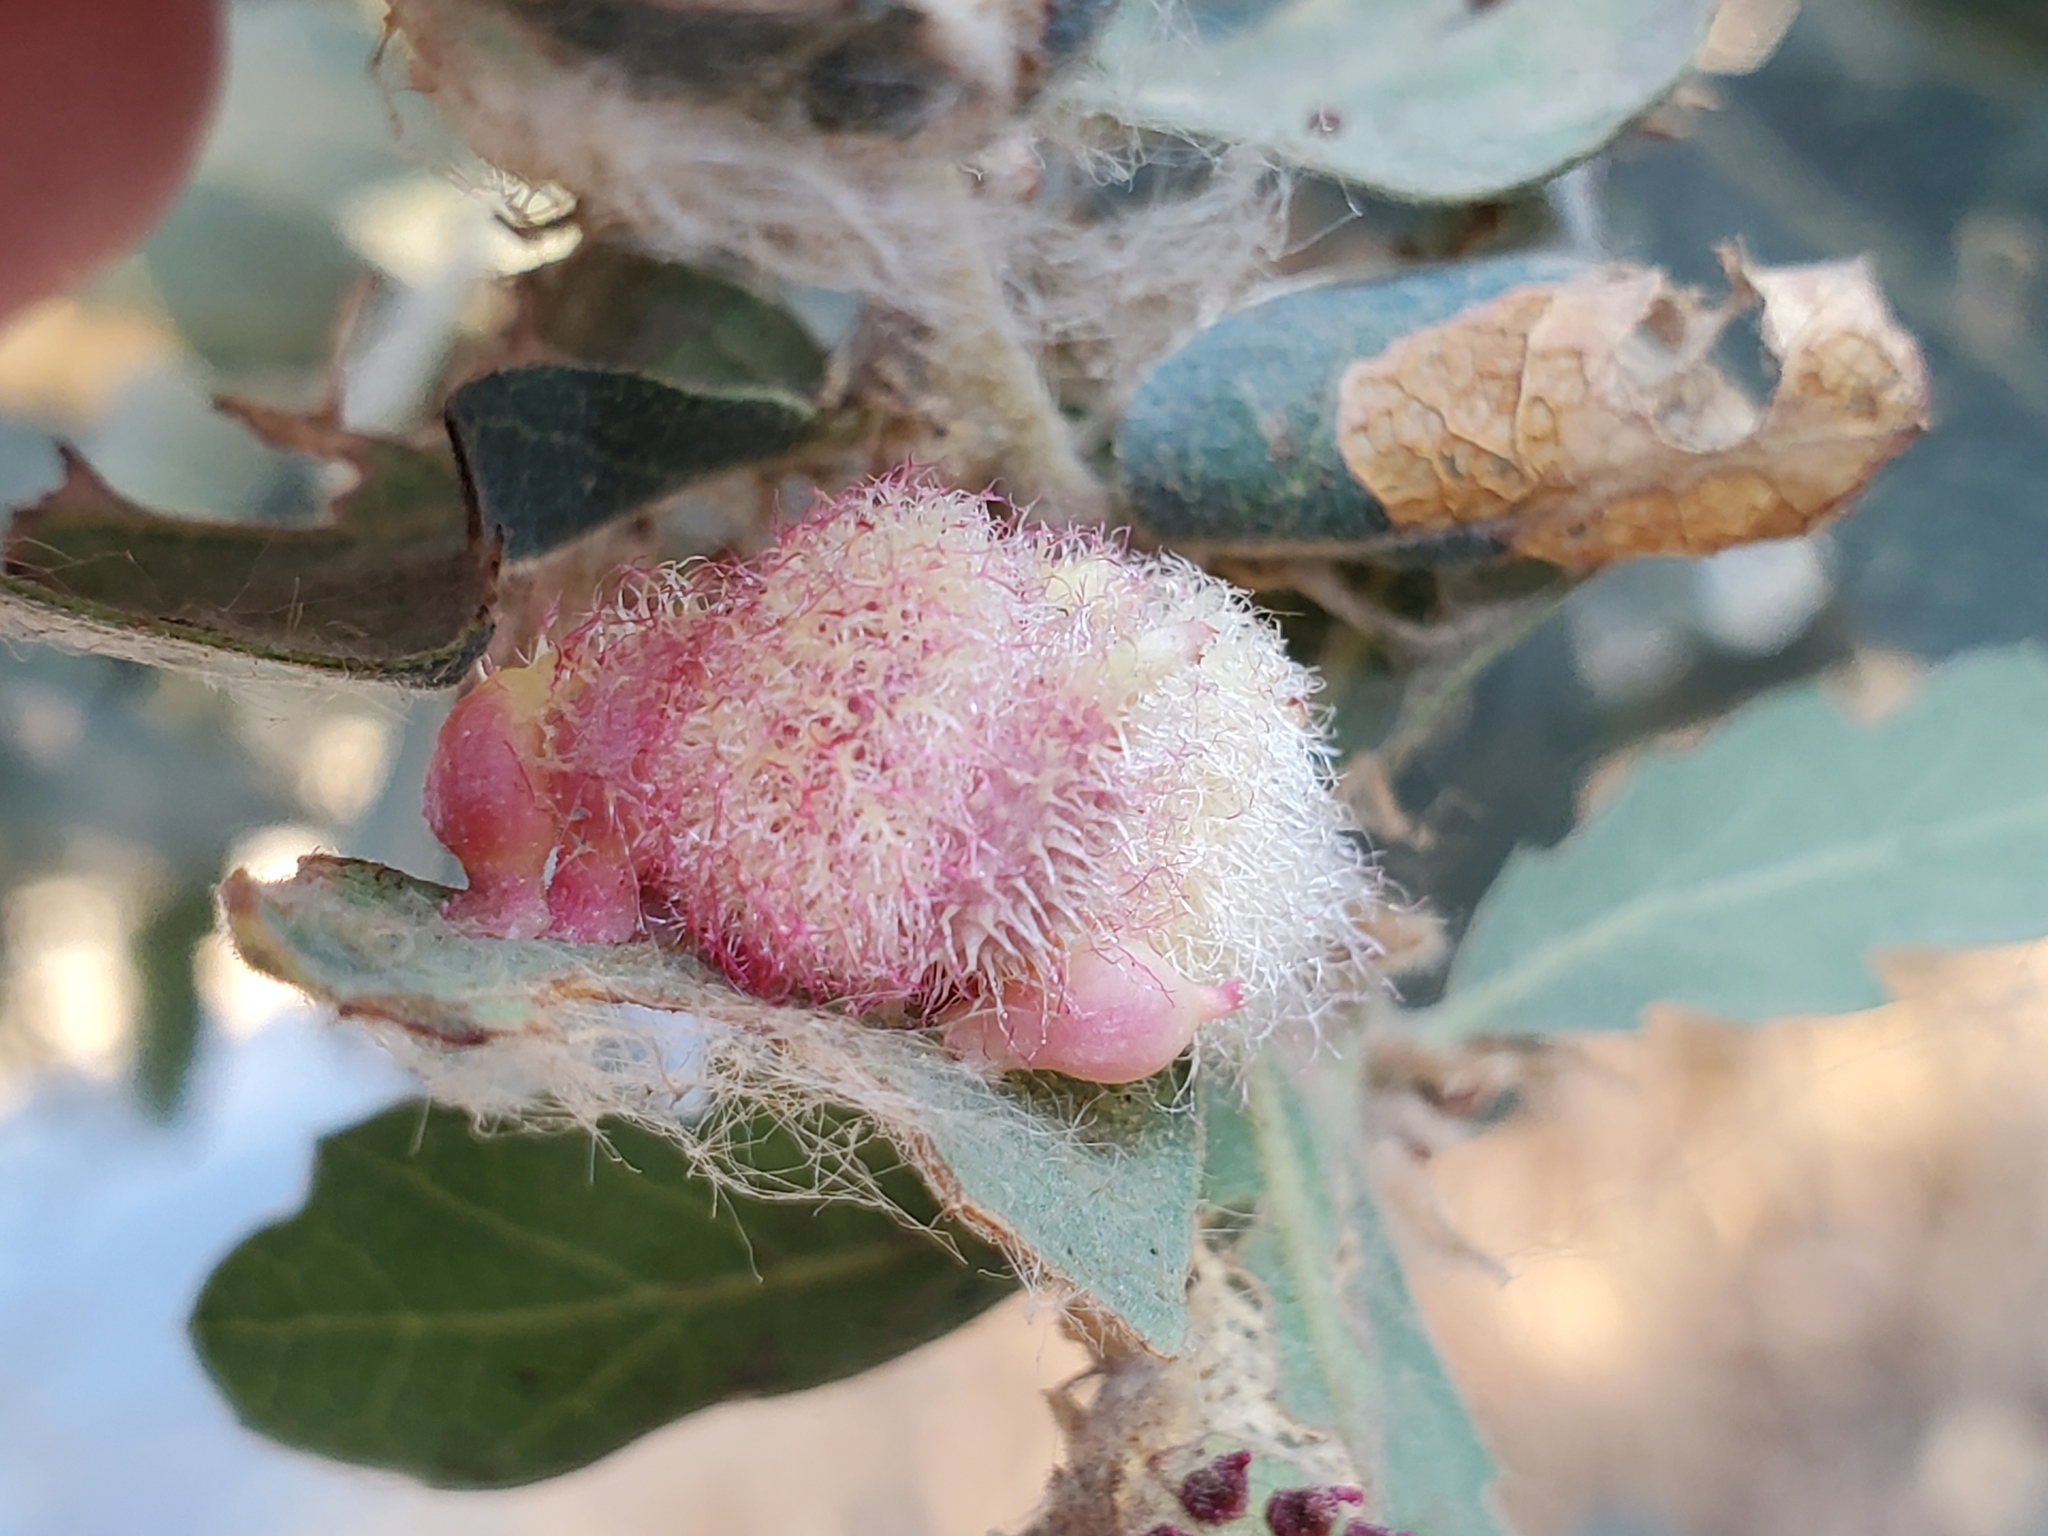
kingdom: Animalia
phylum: Arthropoda
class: Insecta
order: Hymenoptera
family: Cynipidae
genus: Andricus
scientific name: Andricus
